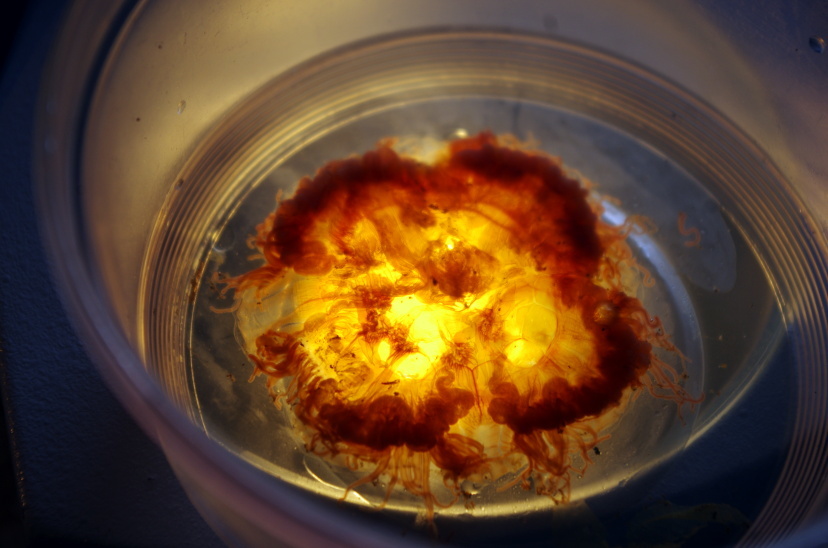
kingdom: Animalia
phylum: Cnidaria
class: Scyphozoa
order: Semaeostomeae
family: Cyaneidae
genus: Cyanea
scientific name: Cyanea tzetlinii
